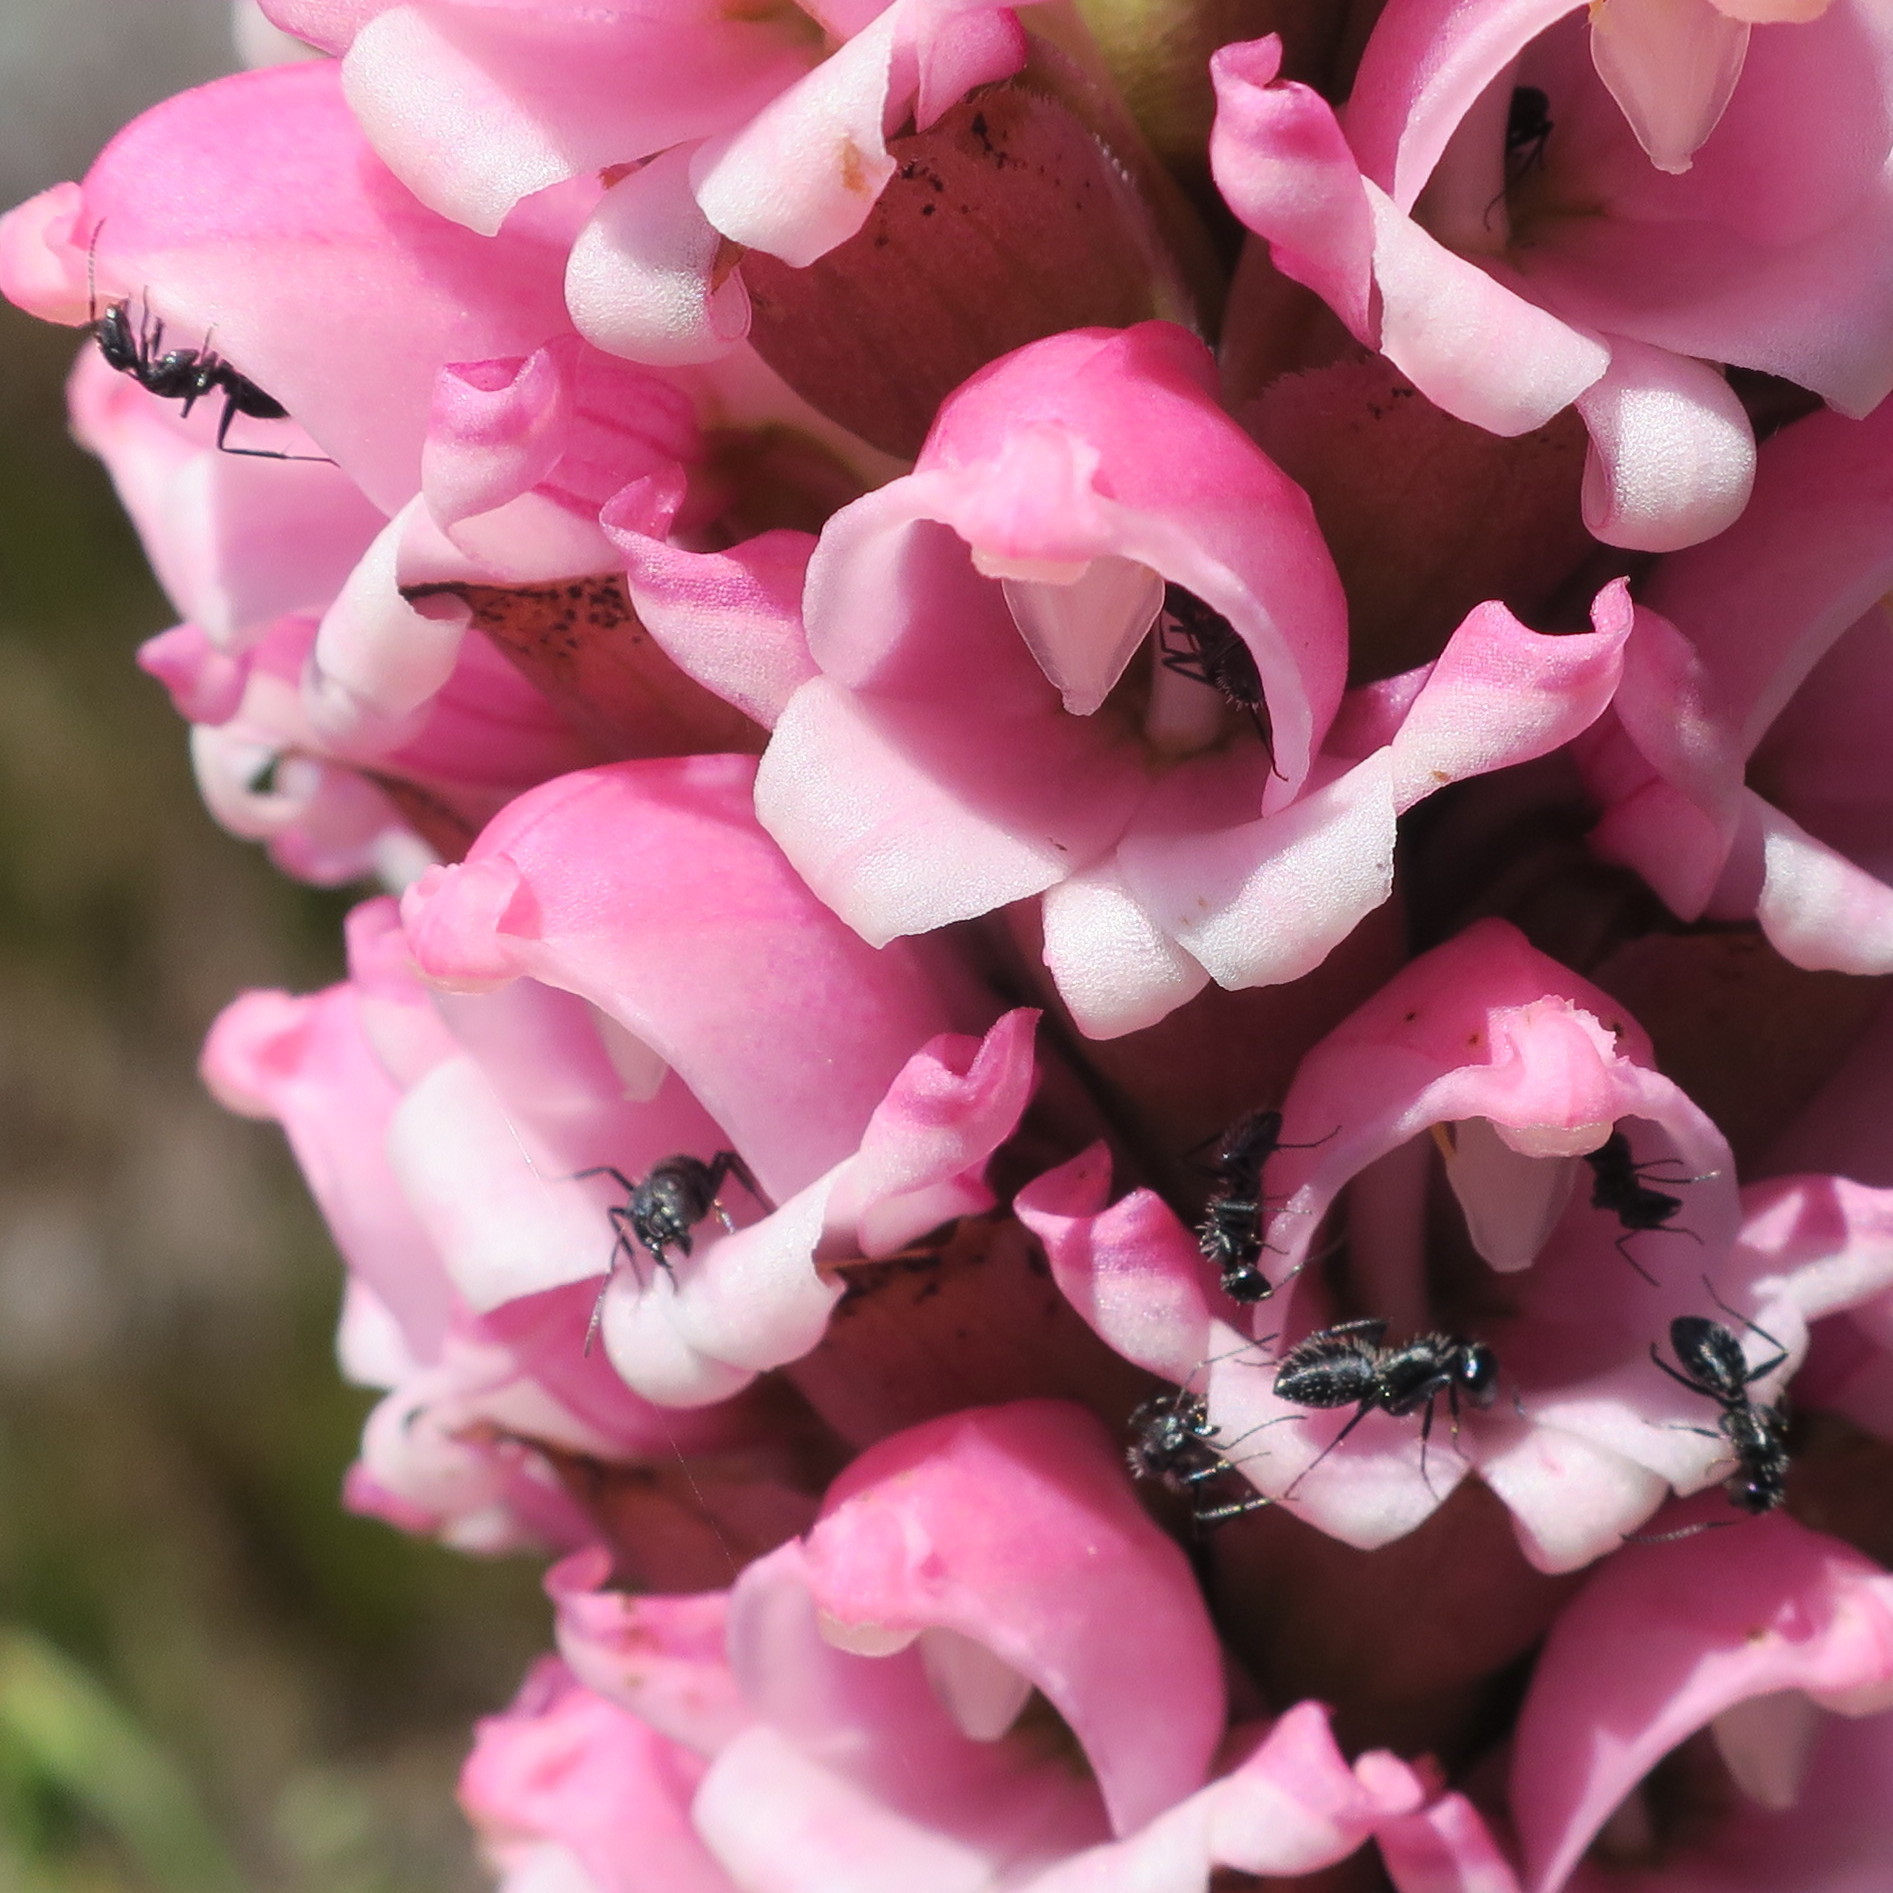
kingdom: Animalia
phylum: Arthropoda
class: Insecta
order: Hymenoptera
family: Formicidae
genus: Camponotus
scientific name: Camponotus niveosetosus
